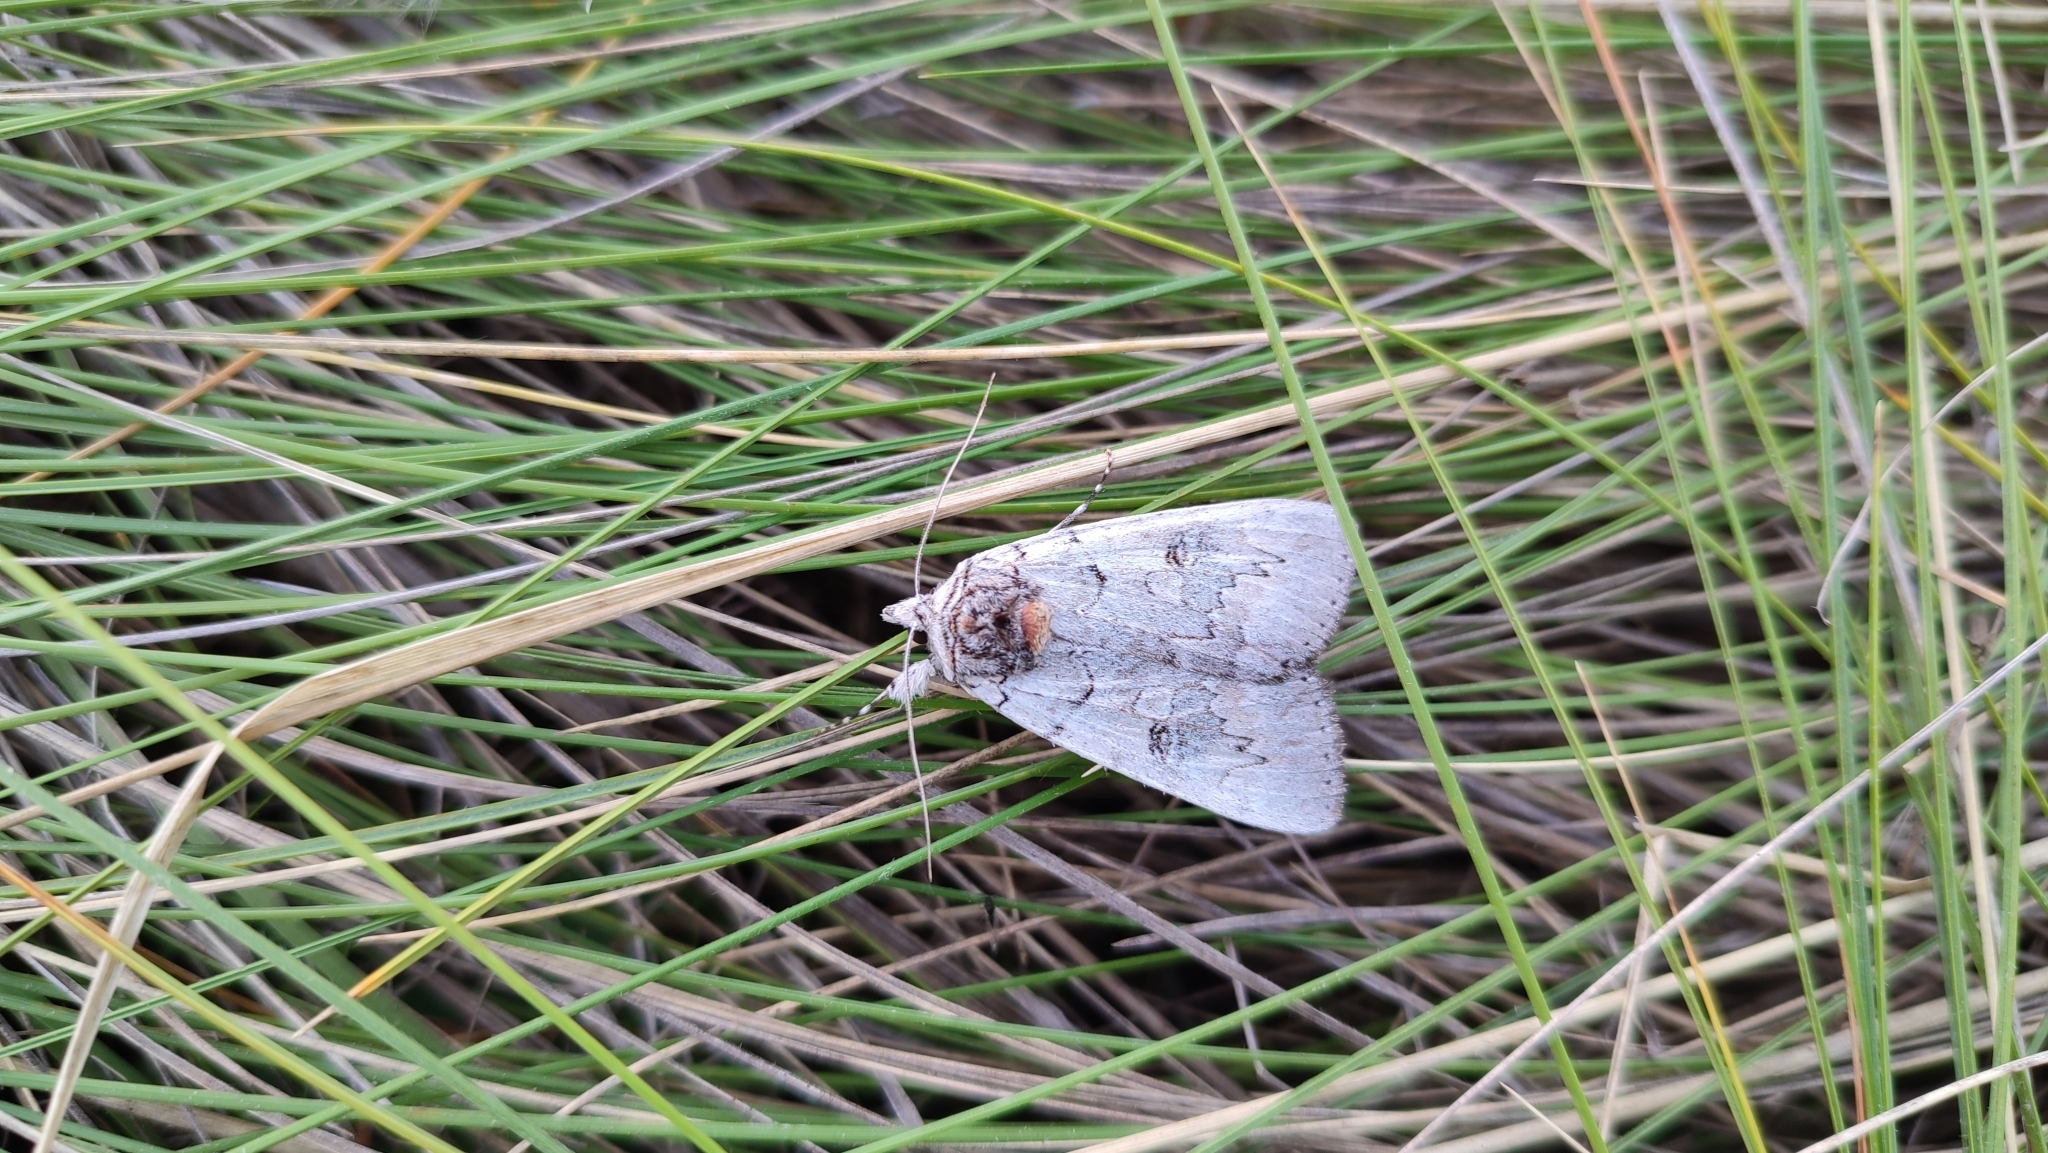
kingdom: Animalia
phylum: Arthropoda
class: Insecta
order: Lepidoptera
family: Erebidae
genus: Catocala
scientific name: Catocala pacta
